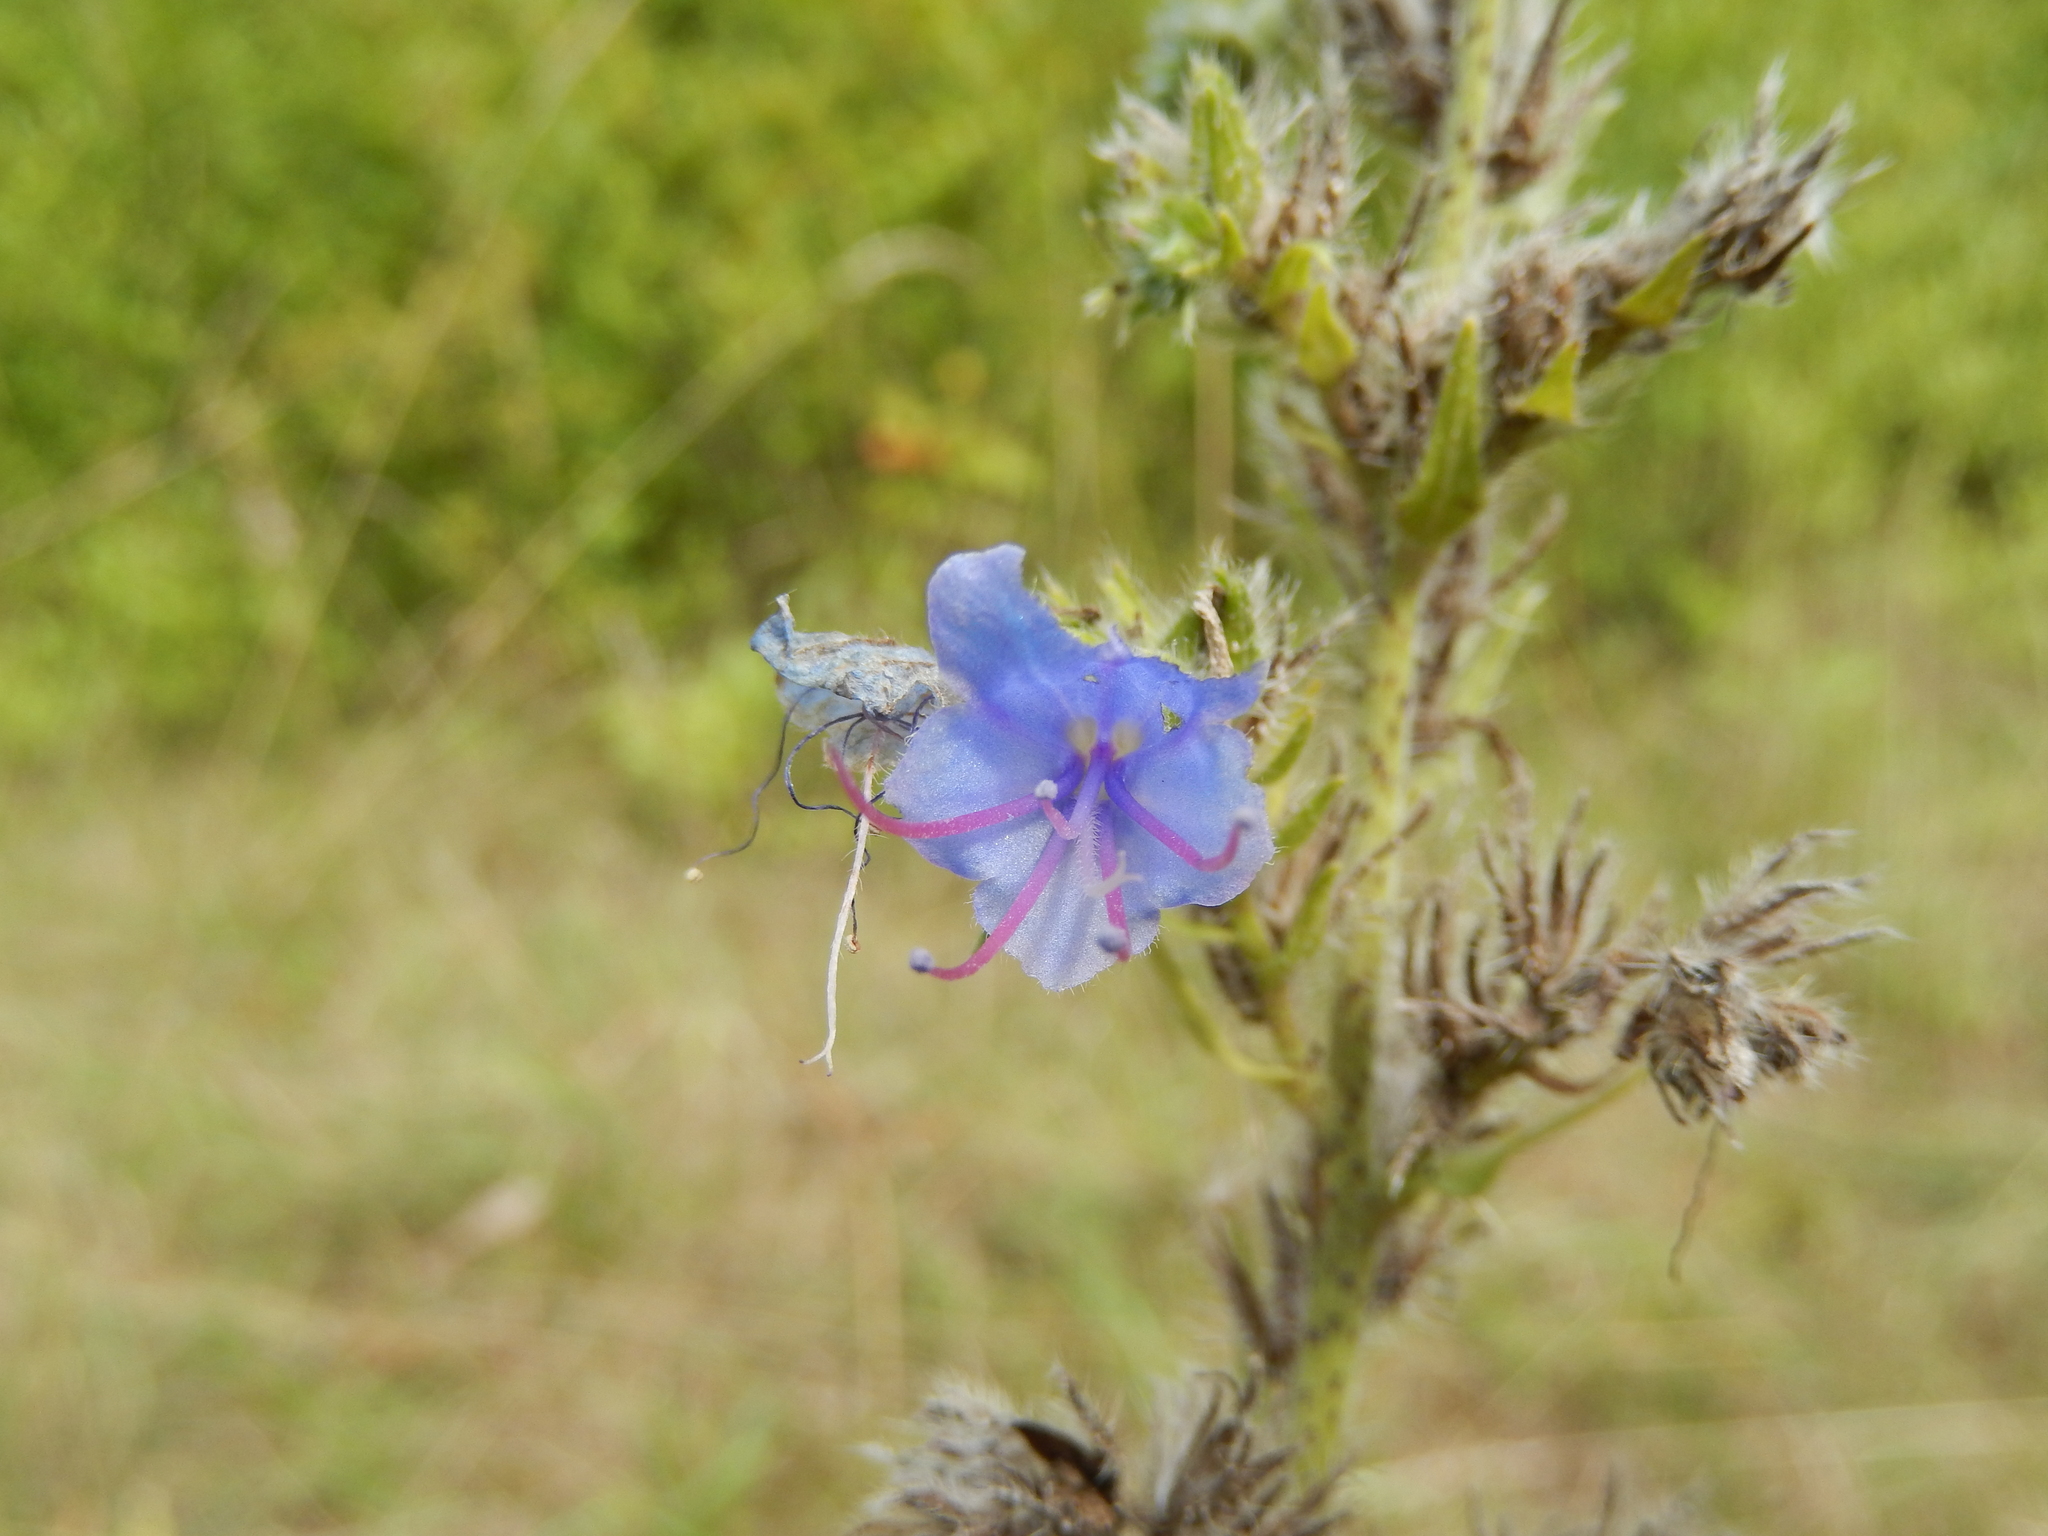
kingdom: Plantae
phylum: Tracheophyta
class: Magnoliopsida
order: Boraginales
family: Boraginaceae
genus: Echium
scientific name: Echium vulgare
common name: Common viper's bugloss
